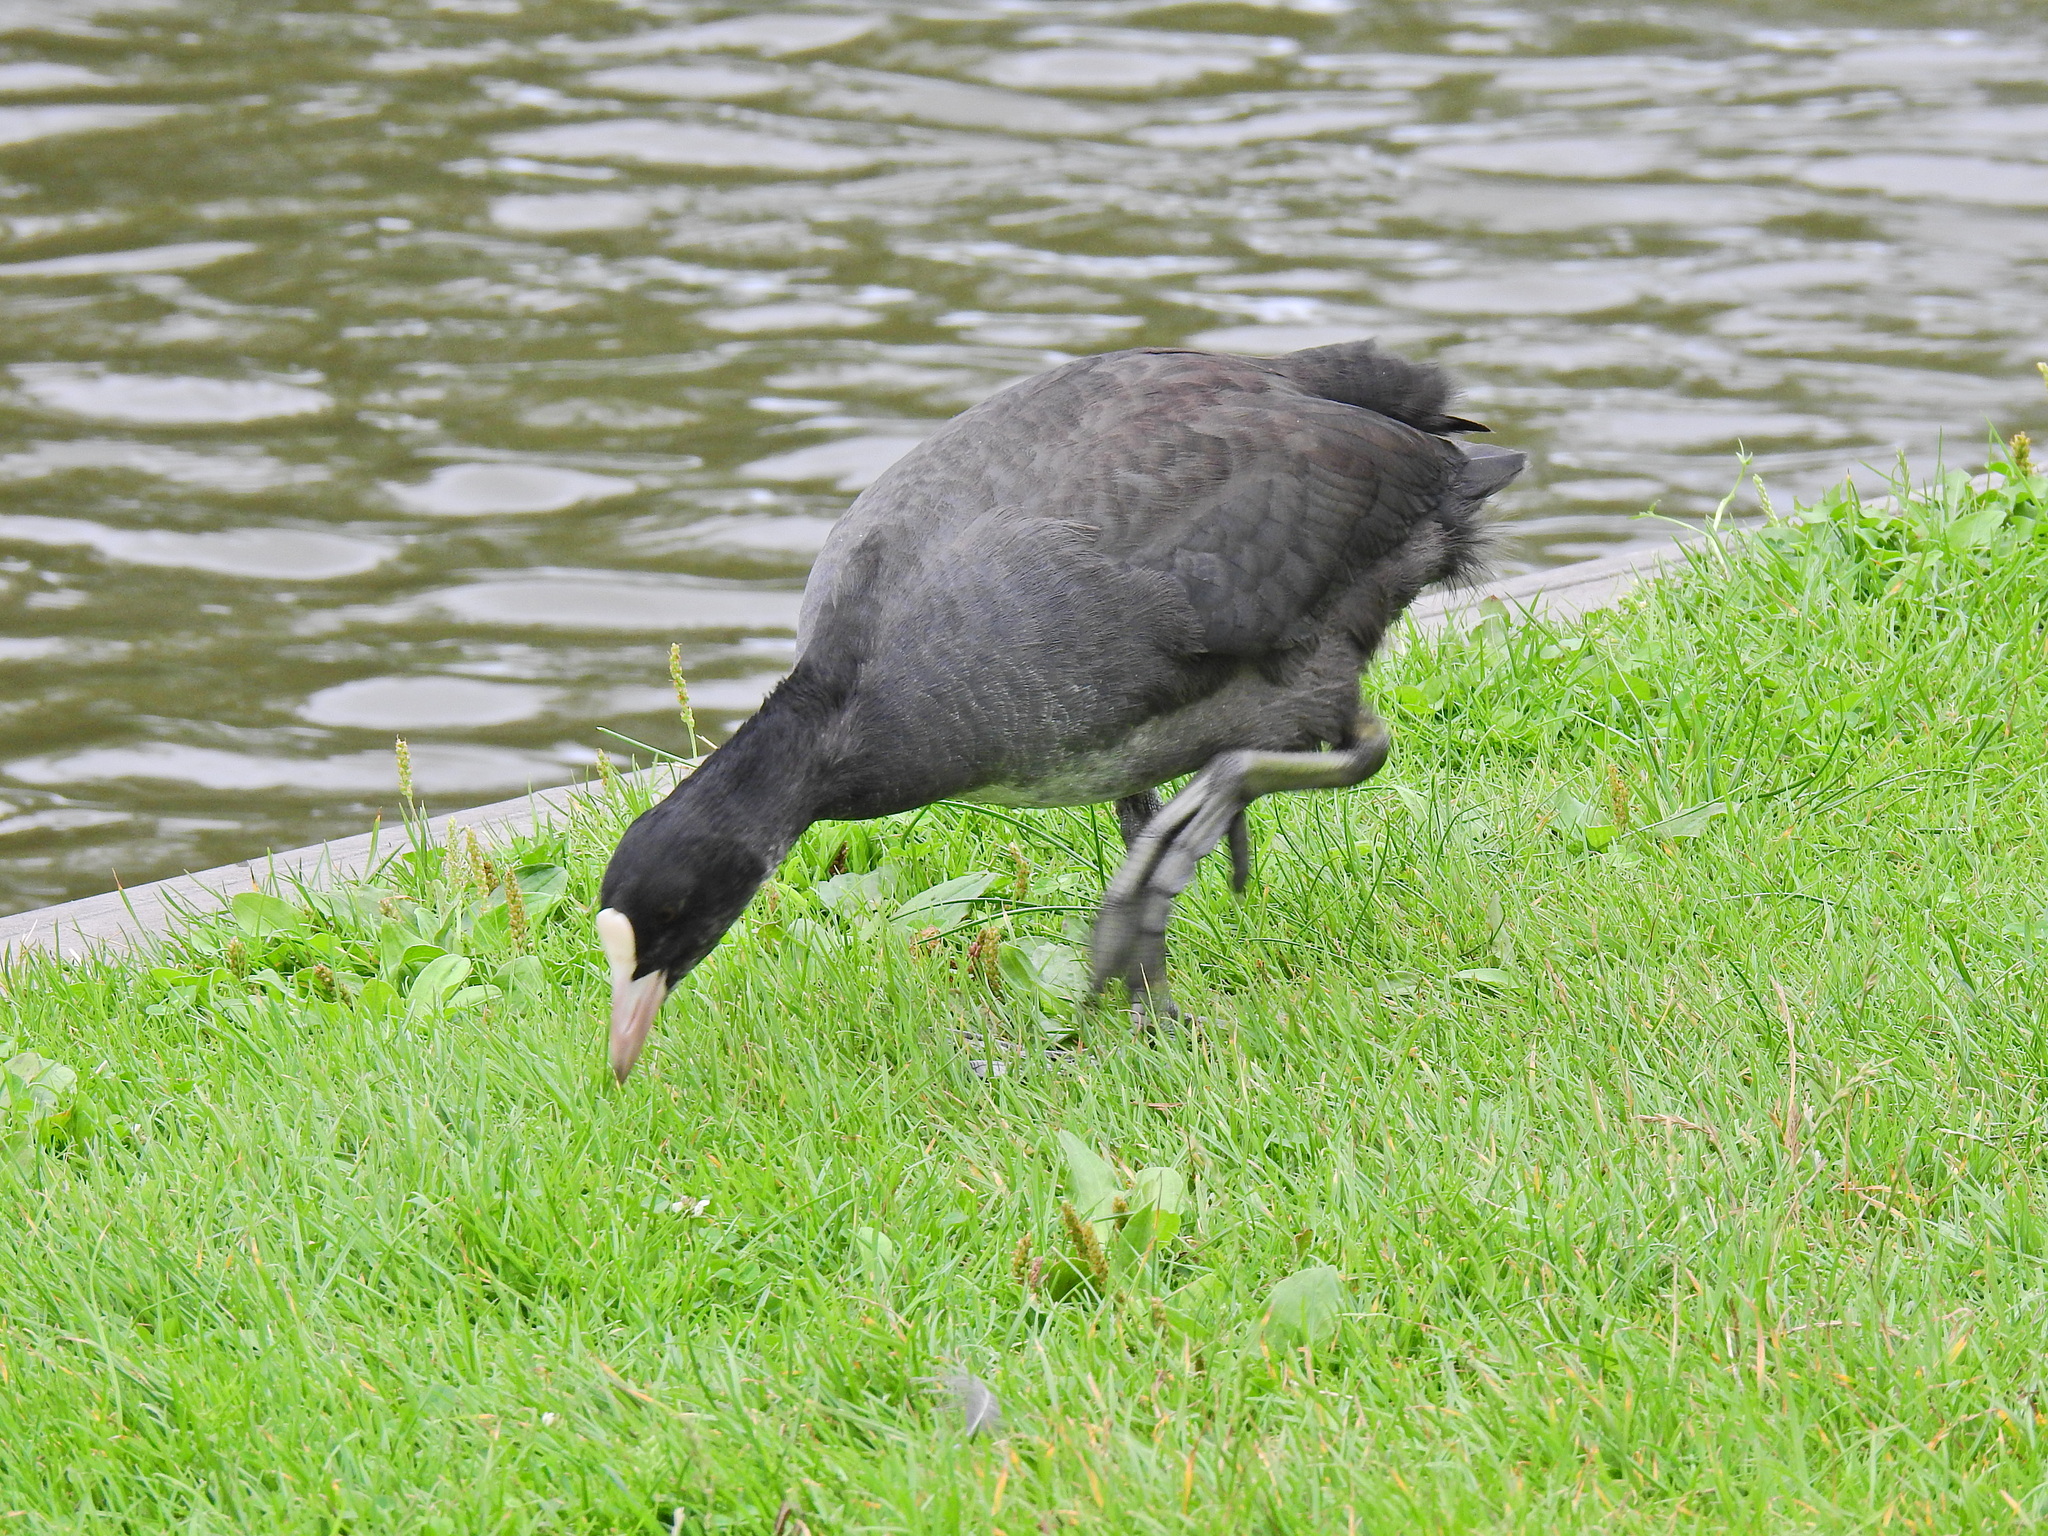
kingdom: Animalia
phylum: Chordata
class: Aves
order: Gruiformes
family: Rallidae
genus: Fulica
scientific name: Fulica atra
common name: Eurasian coot
